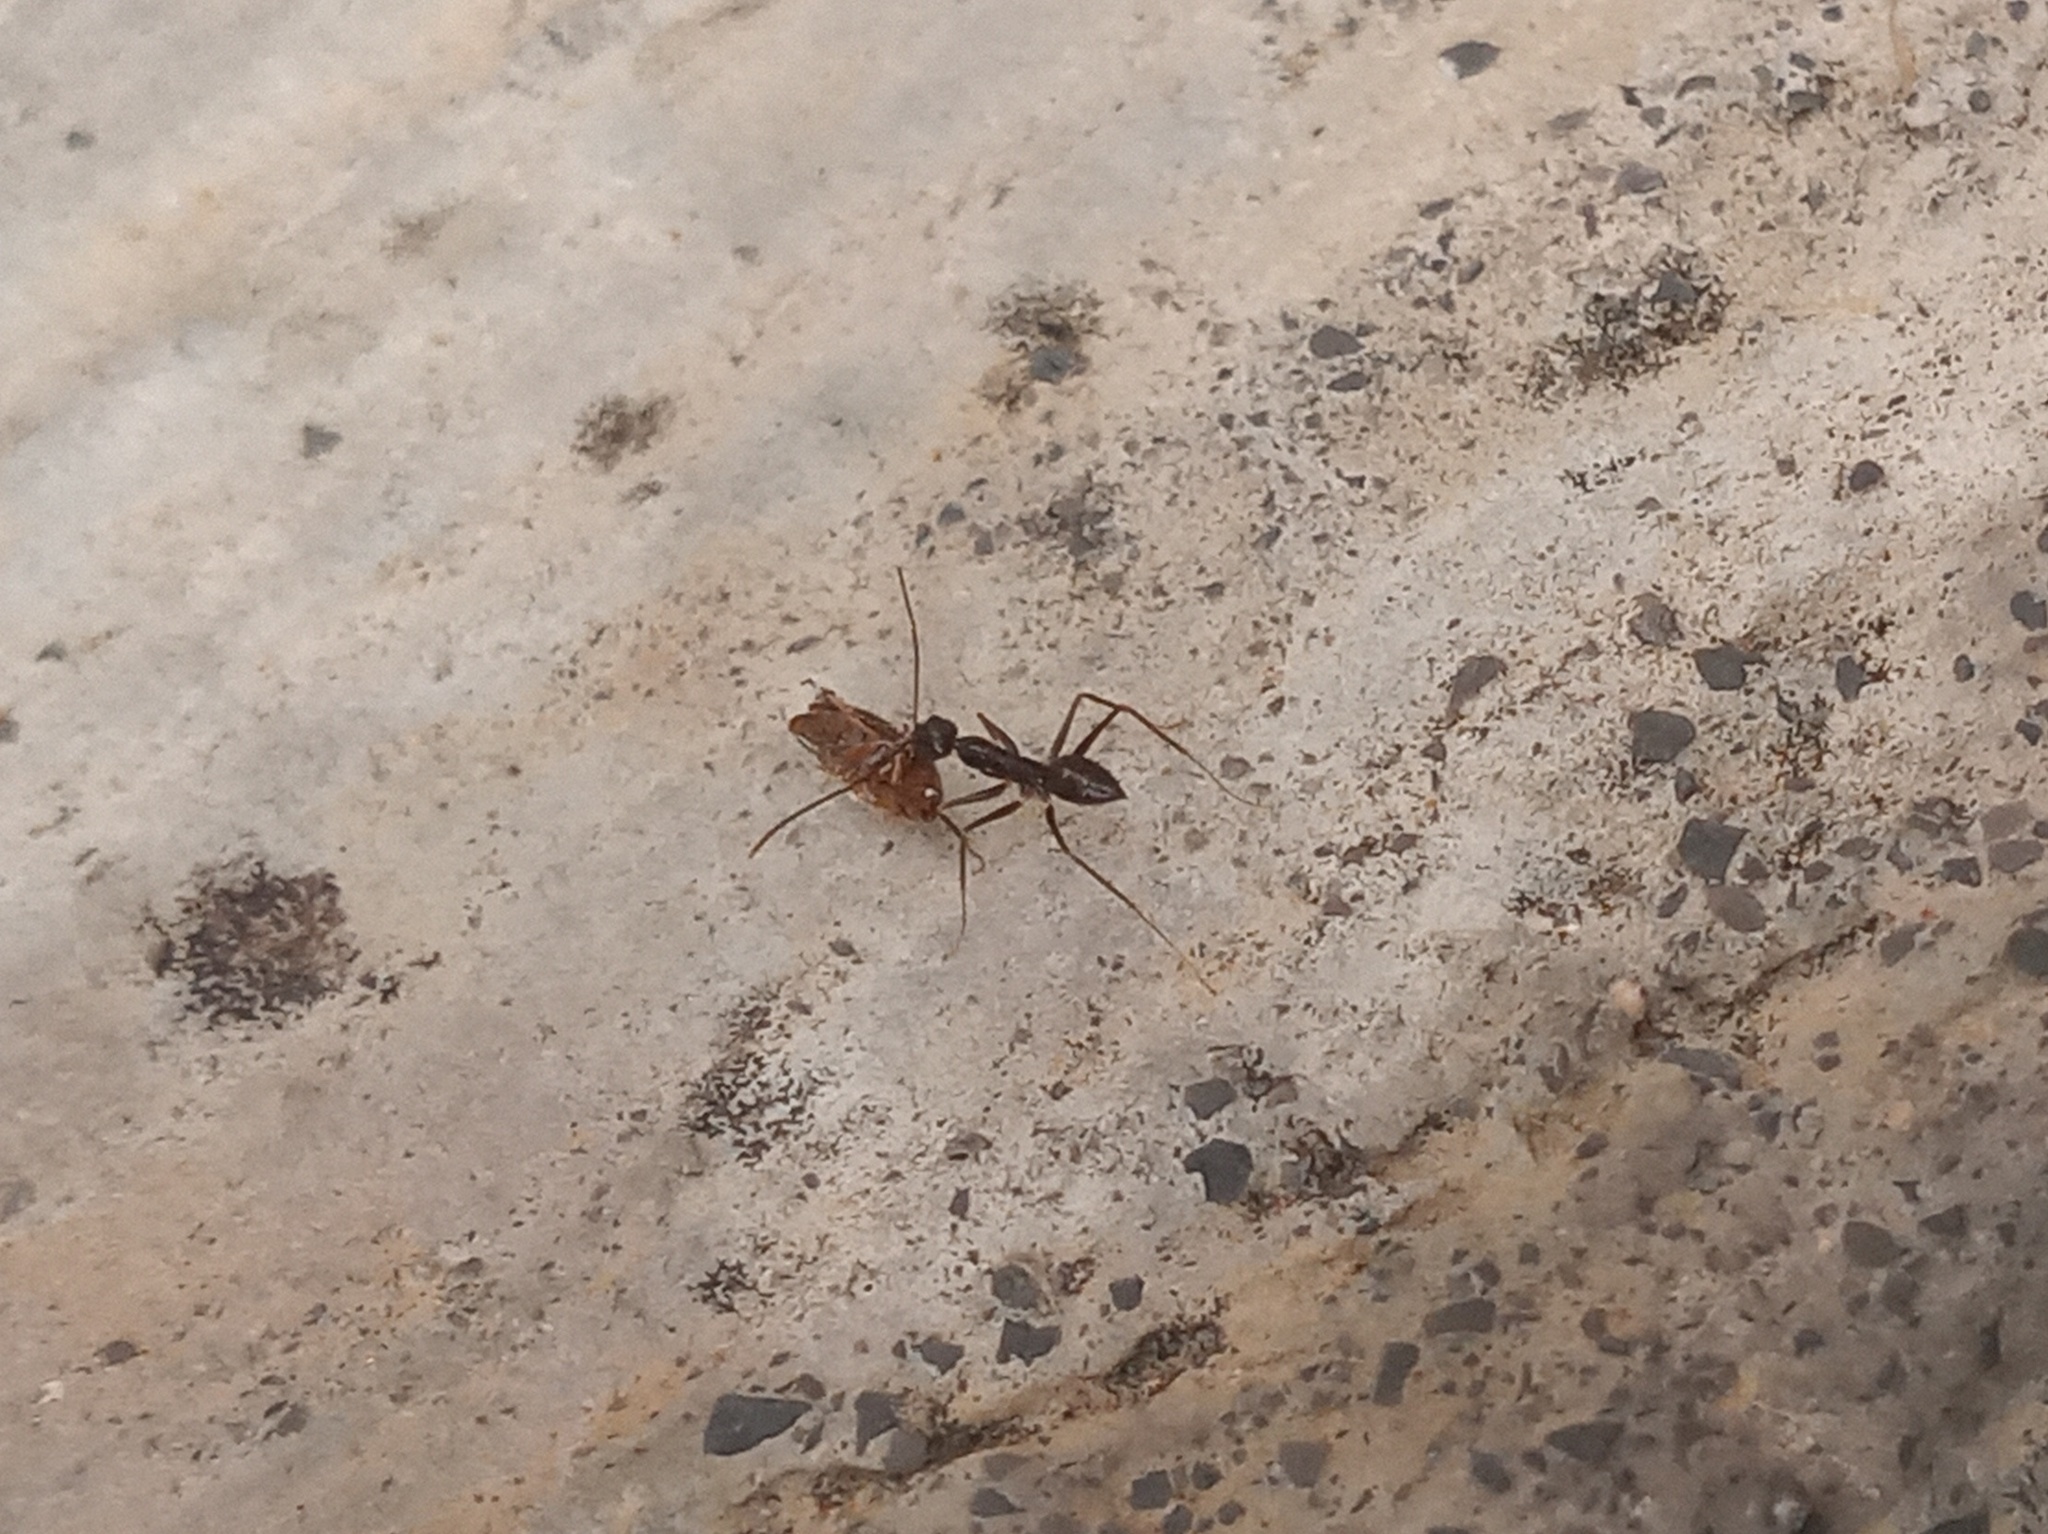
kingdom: Animalia
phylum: Arthropoda
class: Insecta
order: Hymenoptera
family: Formicidae
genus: Paratrechina
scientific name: Paratrechina longicornis
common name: Longhorned crazy ant
